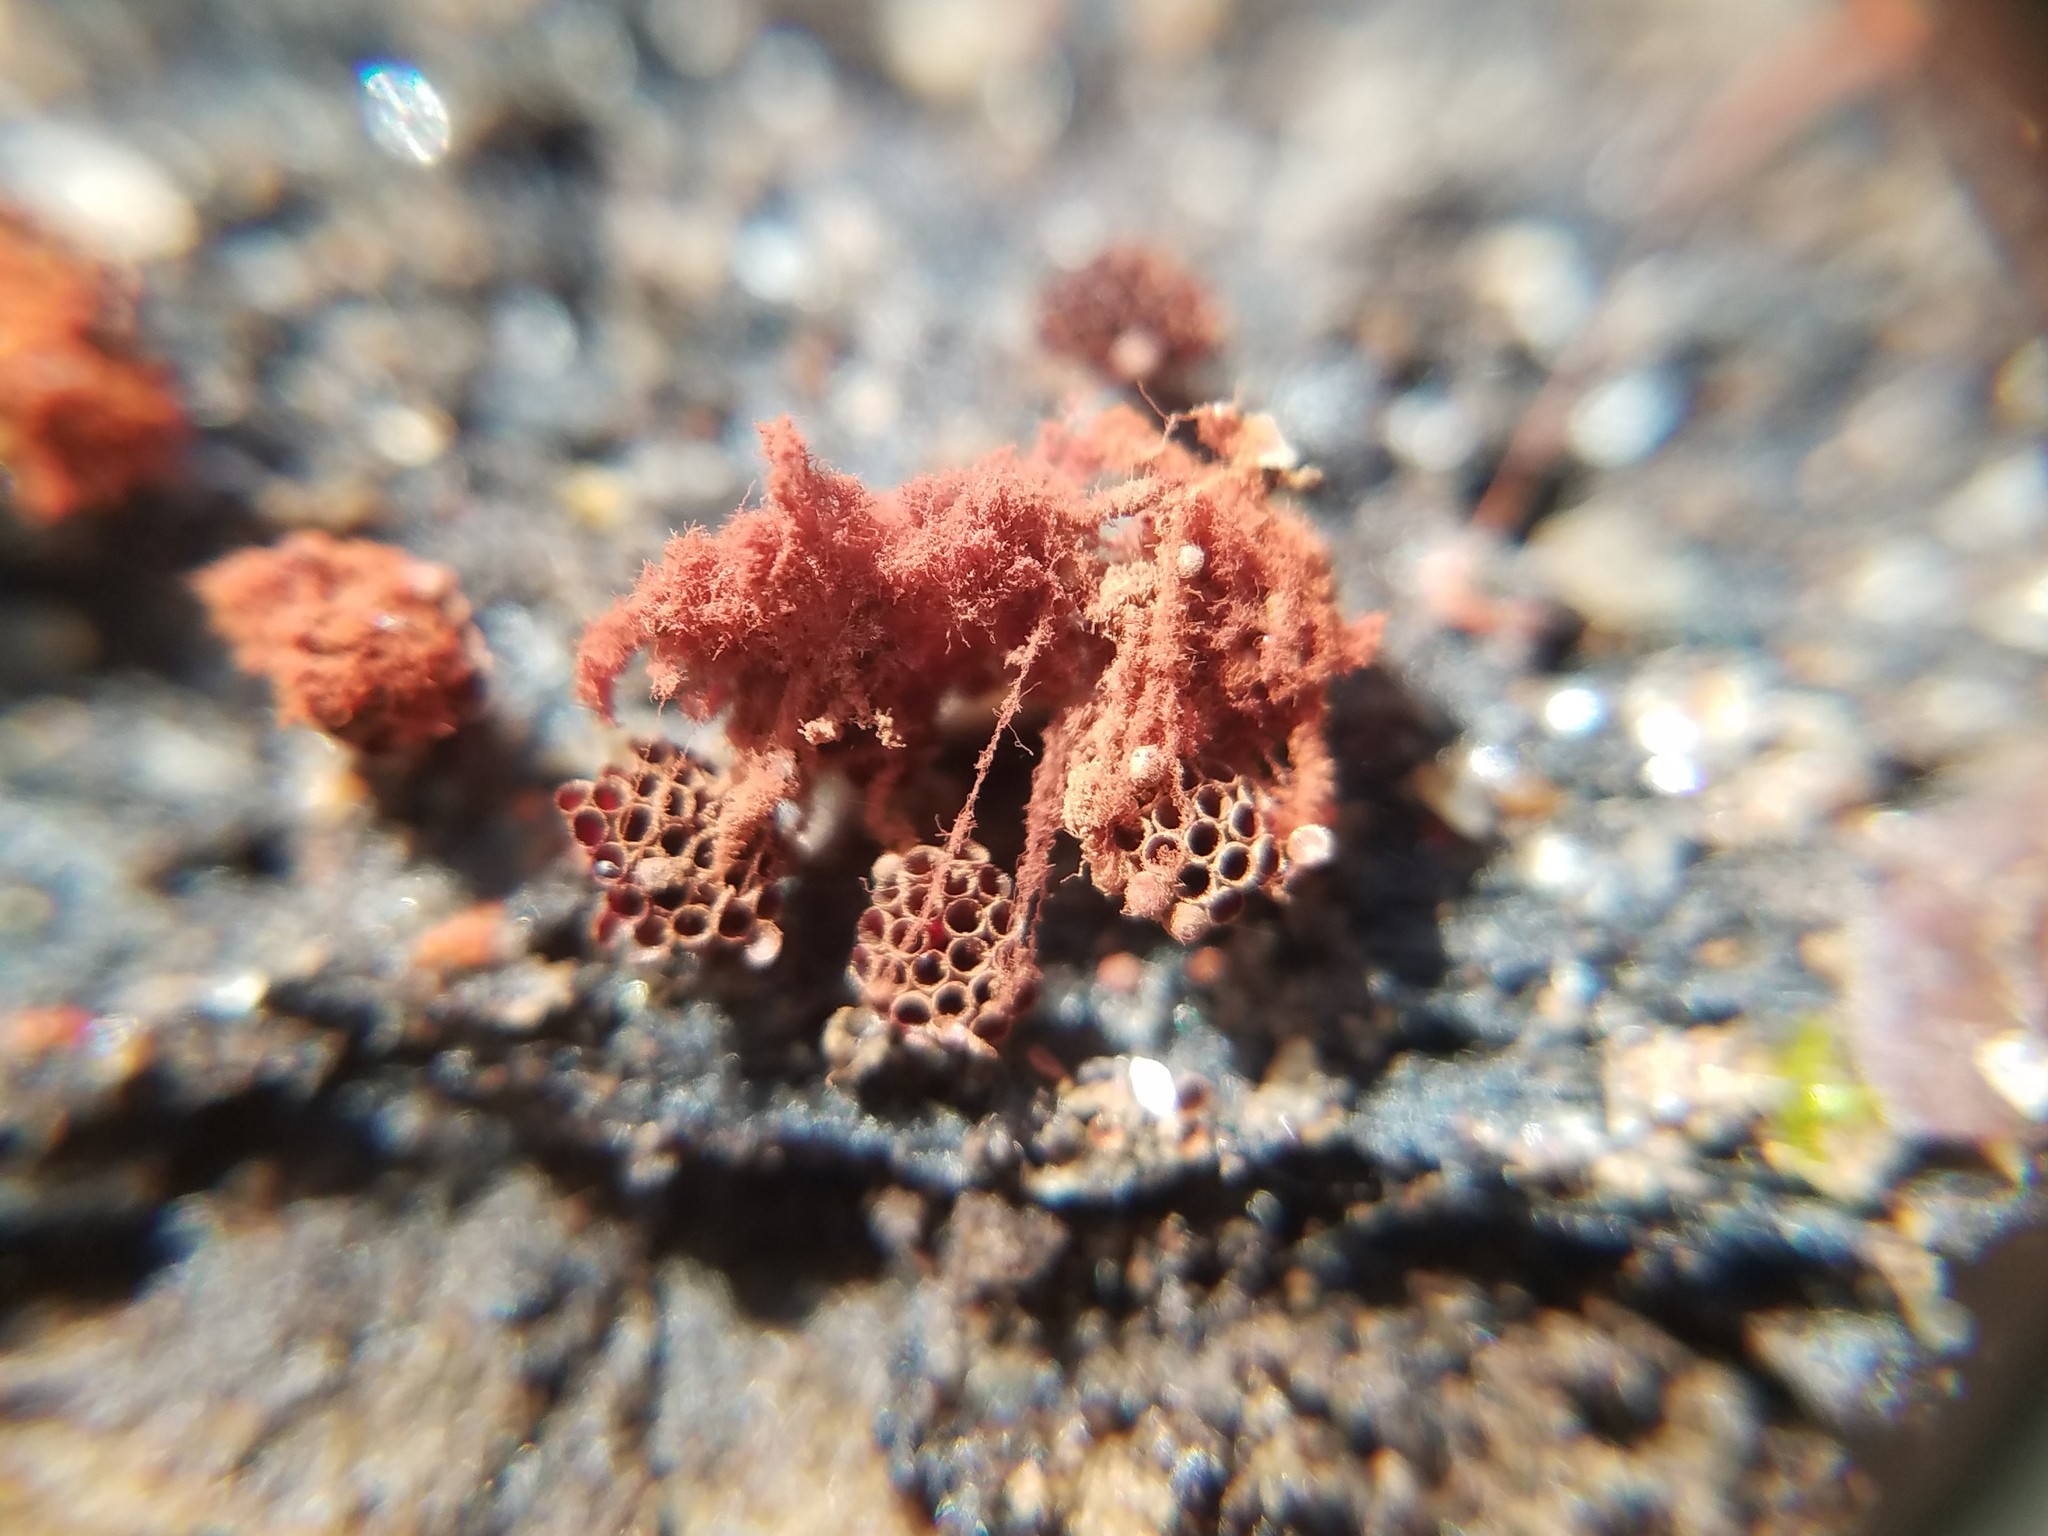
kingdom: Protozoa
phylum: Mycetozoa
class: Myxomycetes
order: Trichiales
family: Trichiaceae
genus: Metatrichia
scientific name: Metatrichia vesparia
